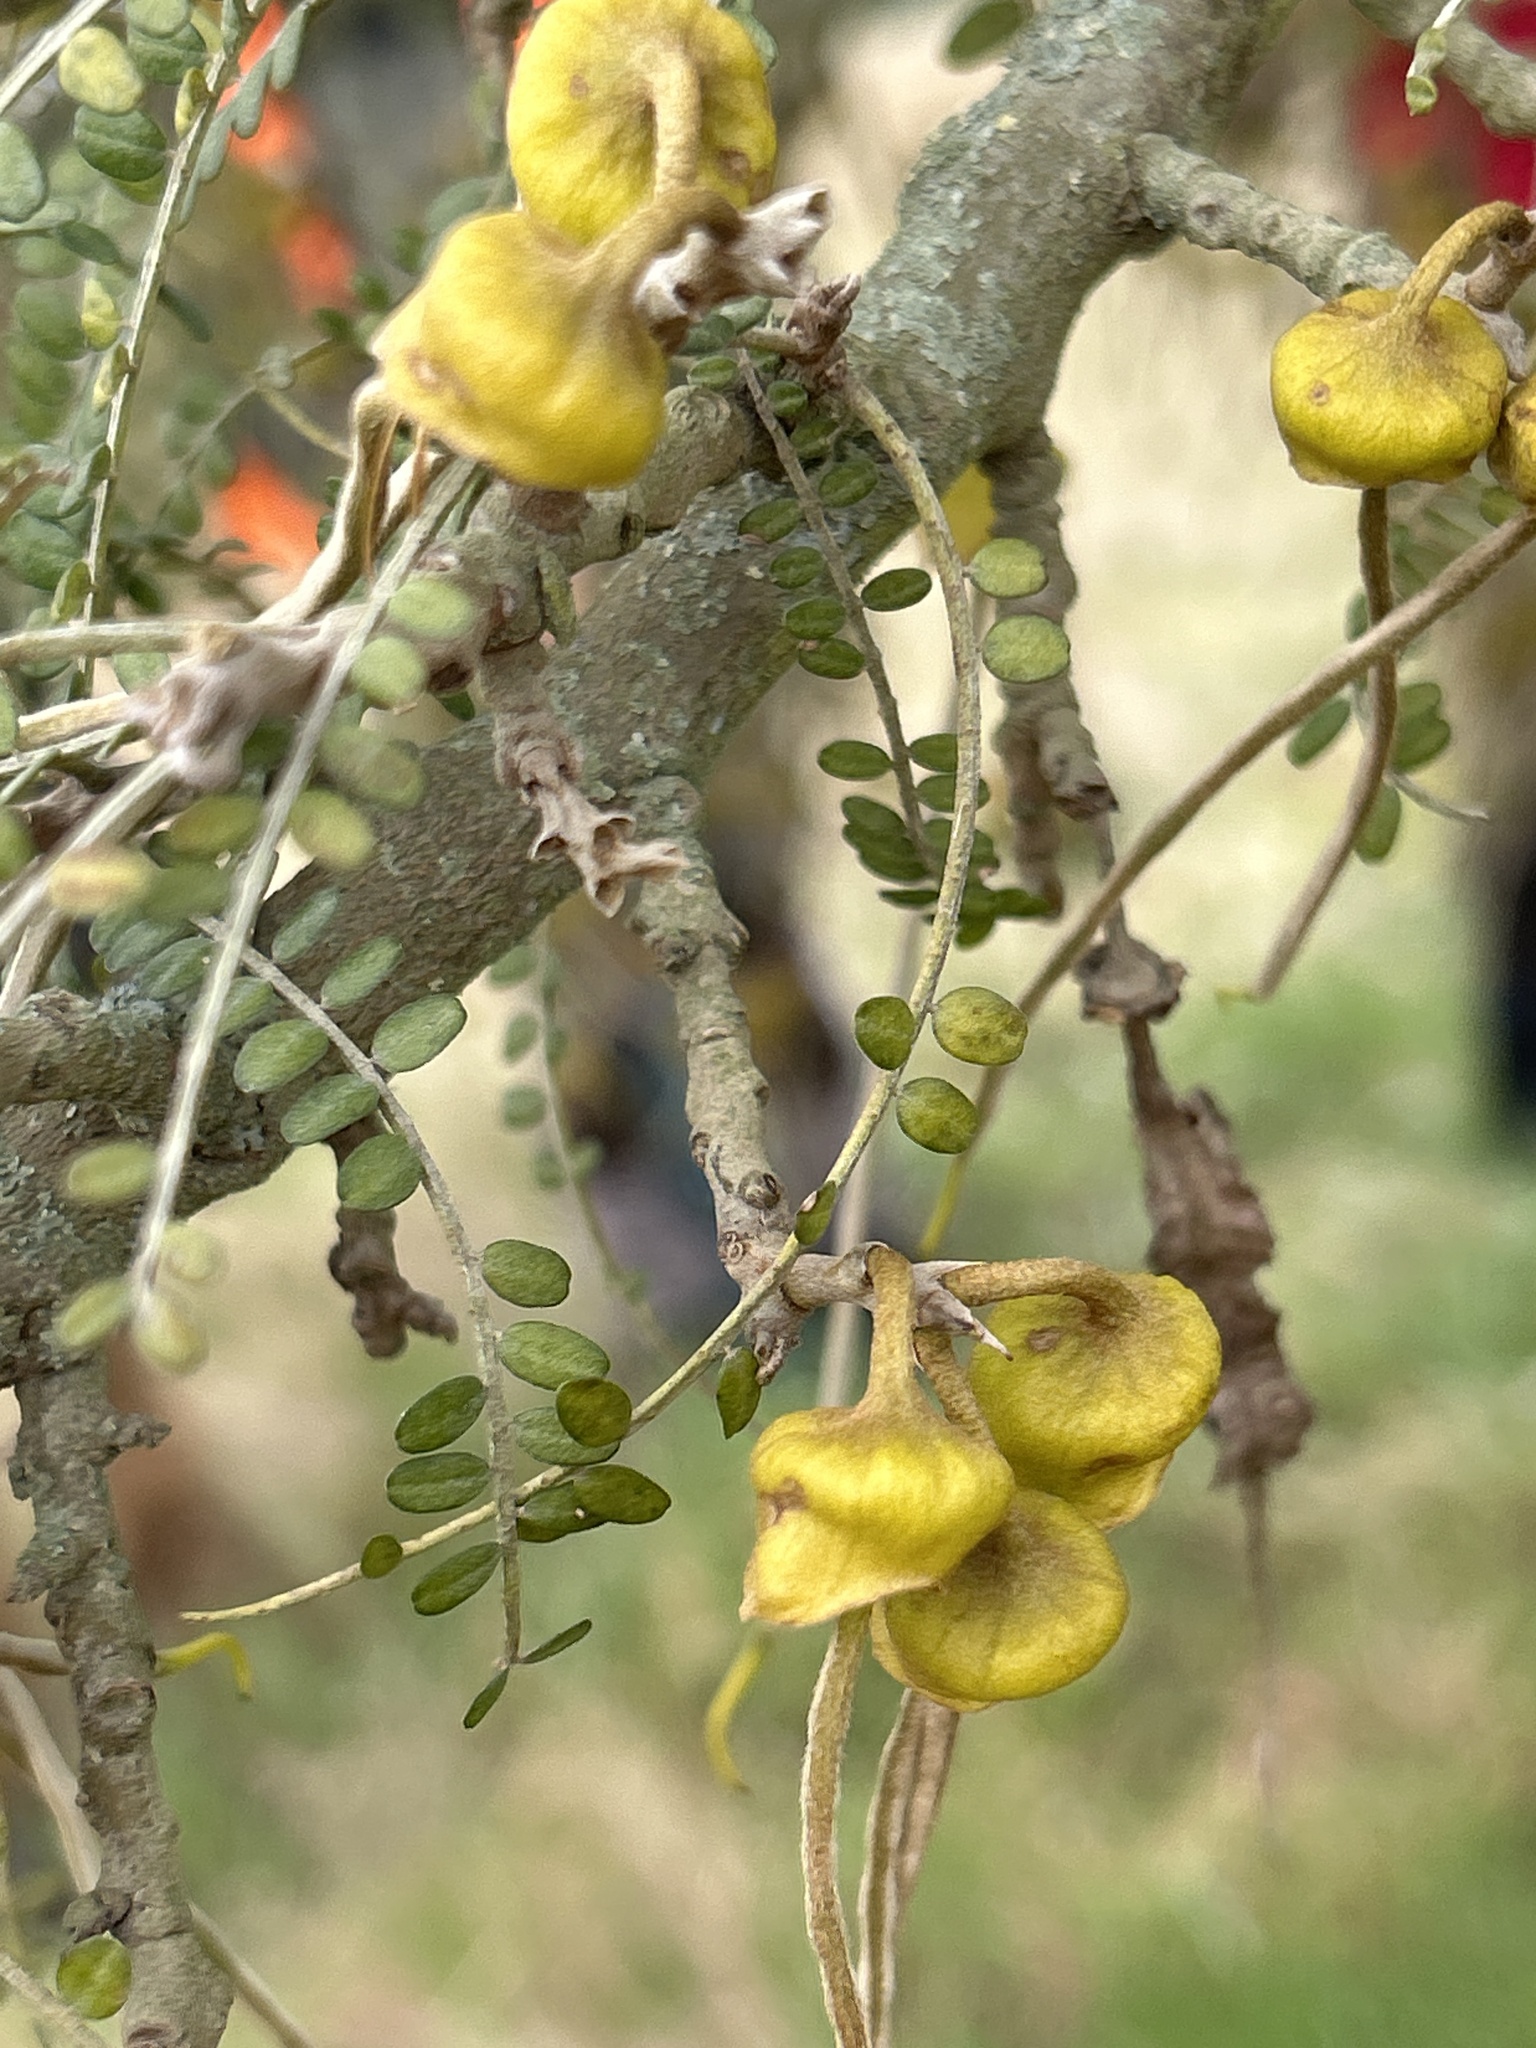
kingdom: Plantae
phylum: Tracheophyta
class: Magnoliopsida
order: Fabales
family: Fabaceae
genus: Sophora
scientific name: Sophora microphylla
